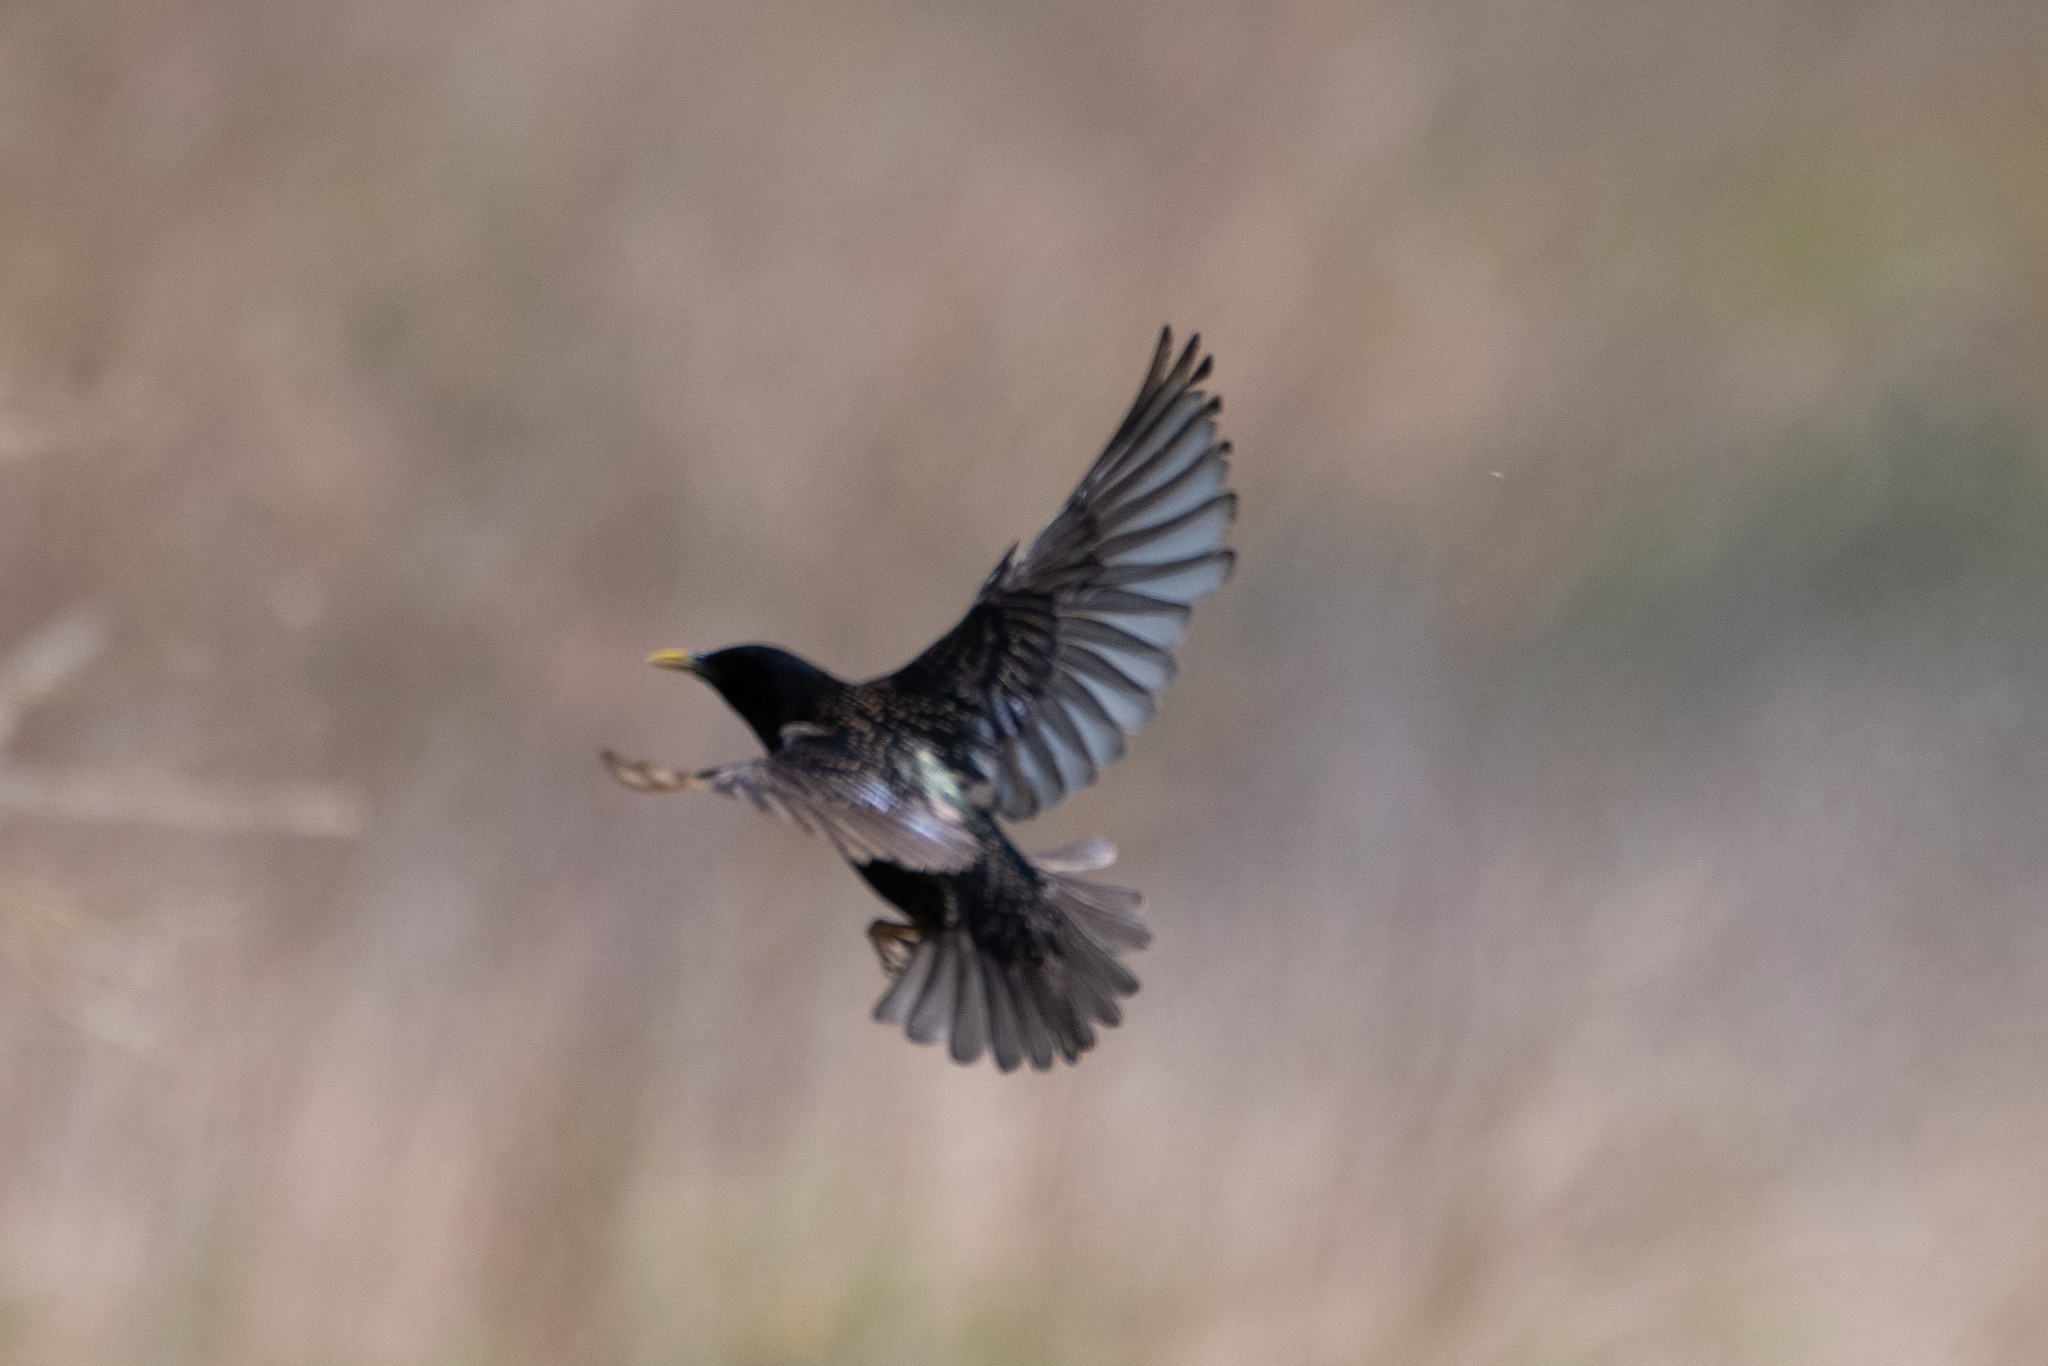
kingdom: Animalia
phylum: Chordata
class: Aves
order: Passeriformes
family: Sturnidae
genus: Sturnus
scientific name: Sturnus vulgaris
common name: Common starling
